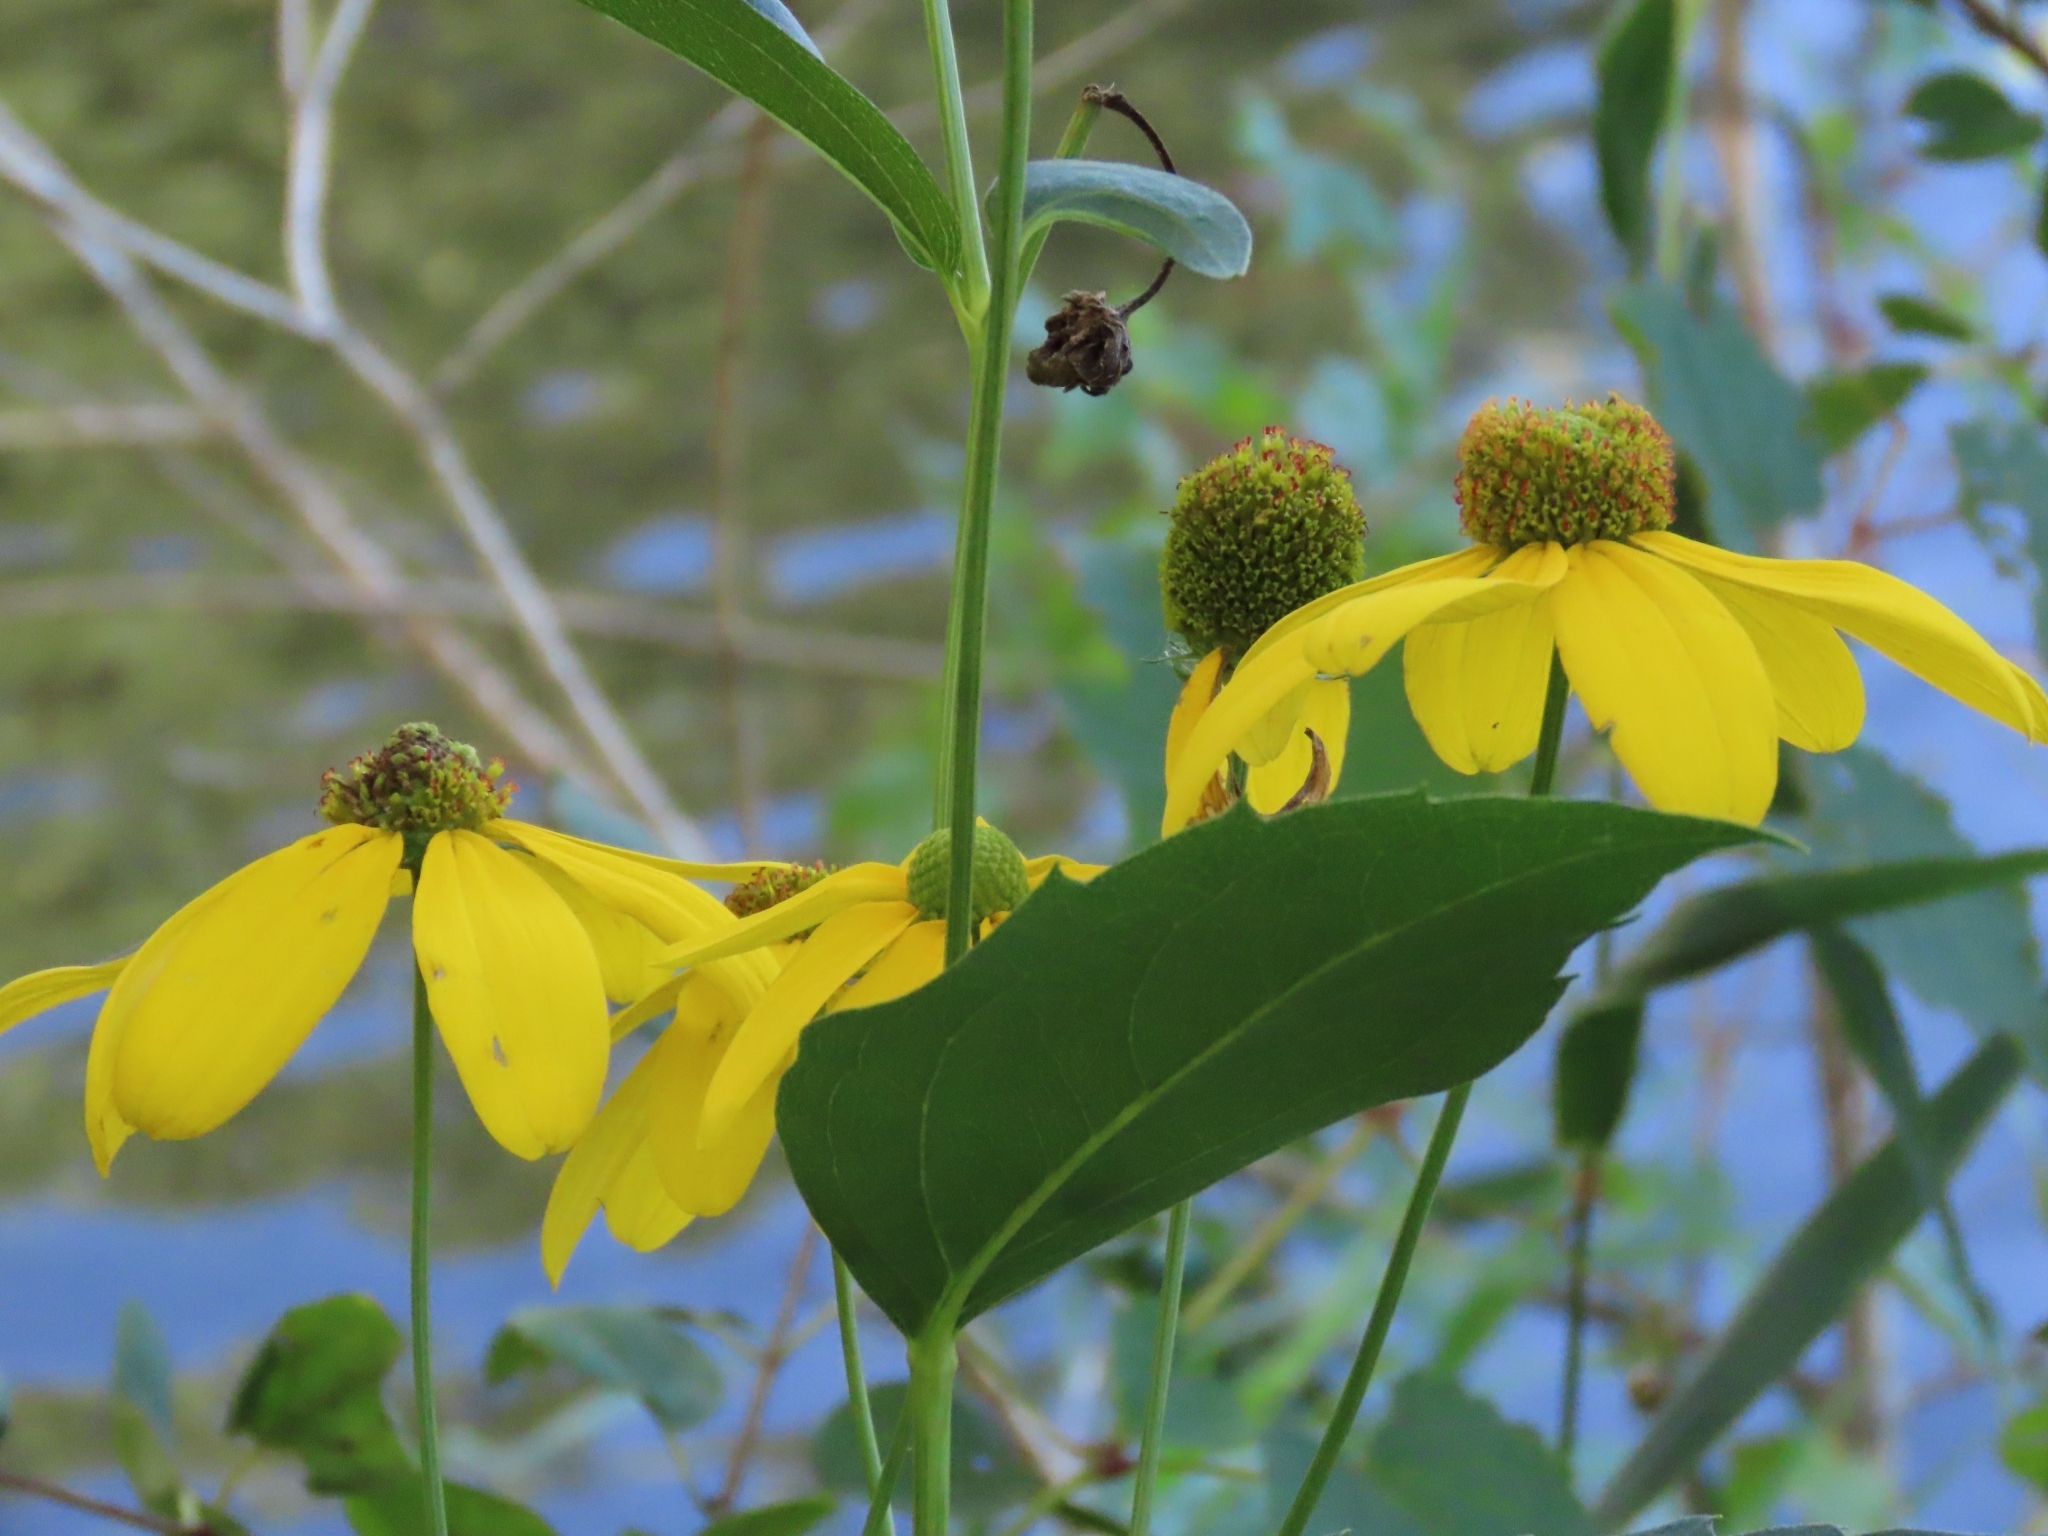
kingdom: Plantae
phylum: Tracheophyta
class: Magnoliopsida
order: Asterales
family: Asteraceae
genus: Rudbeckia
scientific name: Rudbeckia laciniata
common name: Coneflower
